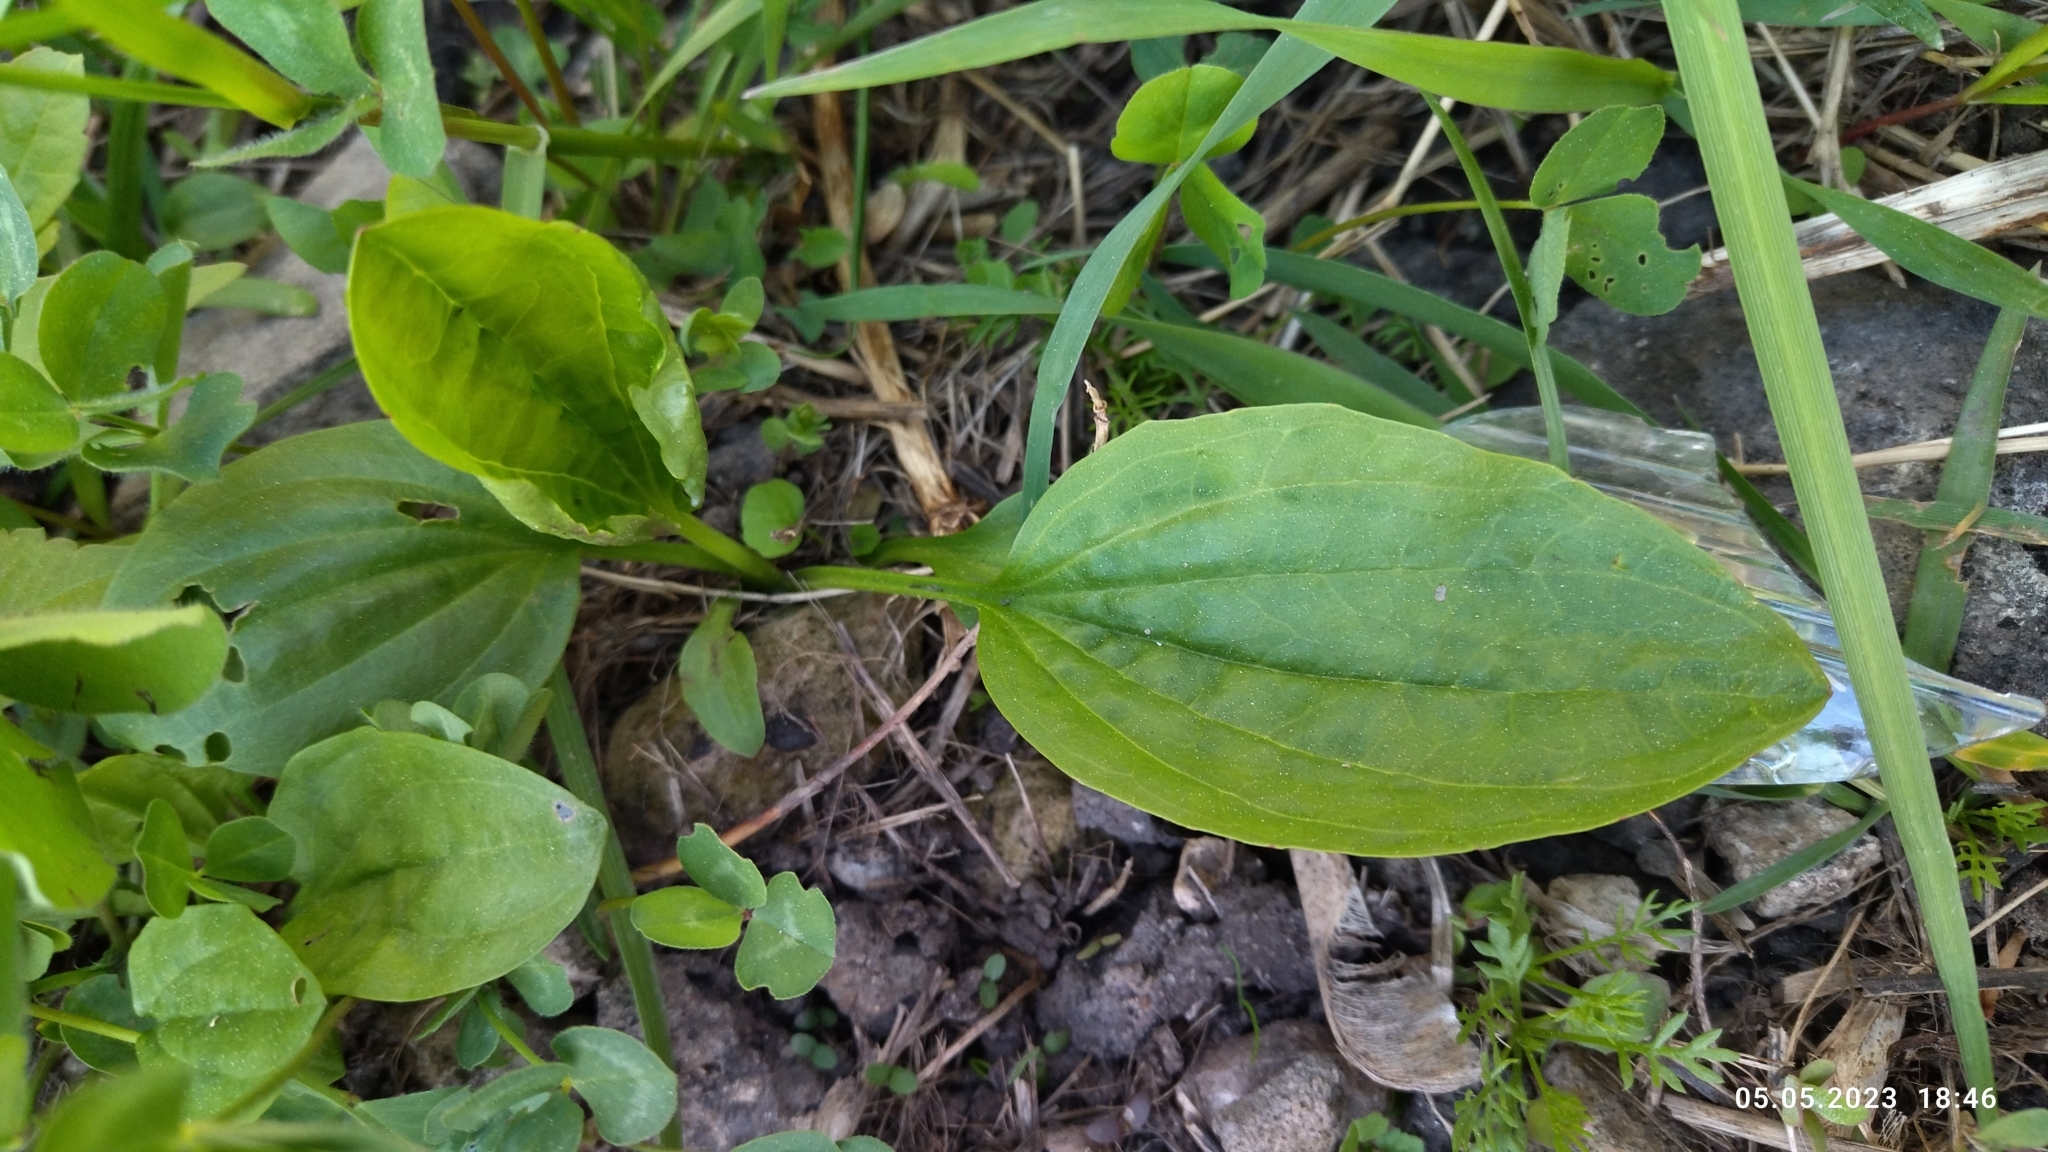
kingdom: Plantae
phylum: Tracheophyta
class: Magnoliopsida
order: Lamiales
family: Plantaginaceae
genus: Plantago
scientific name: Plantago major
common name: Common plantain
